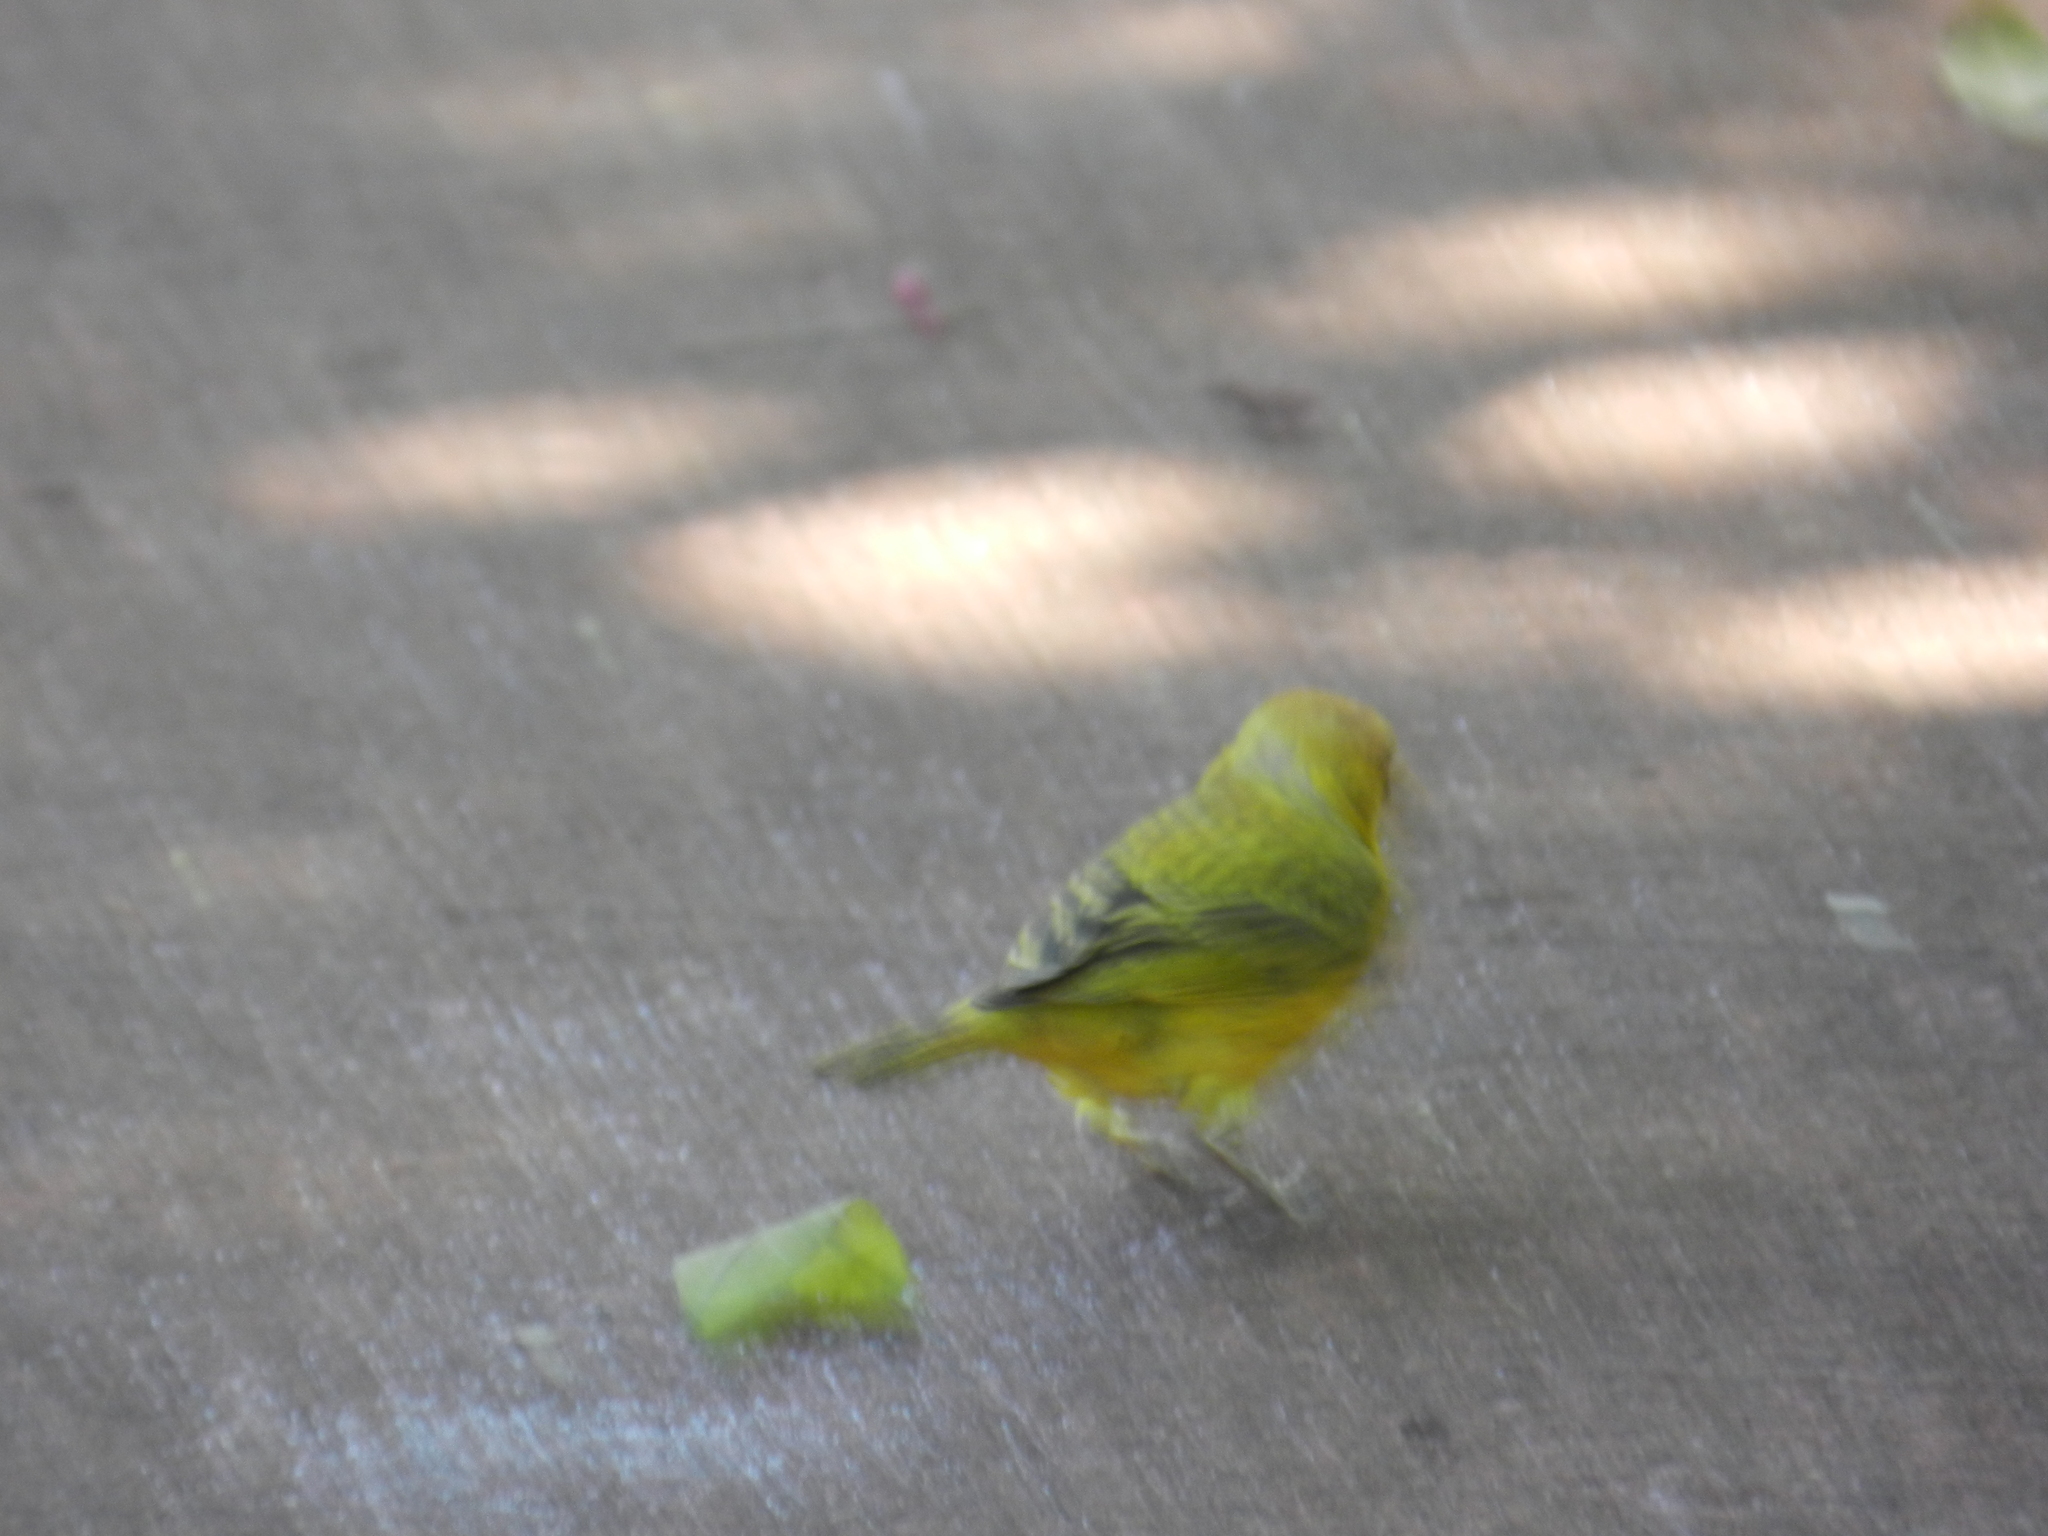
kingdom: Animalia
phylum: Chordata
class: Aves
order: Passeriformes
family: Thraupidae
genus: Sicalis
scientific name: Sicalis flaveola
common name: Saffron finch
